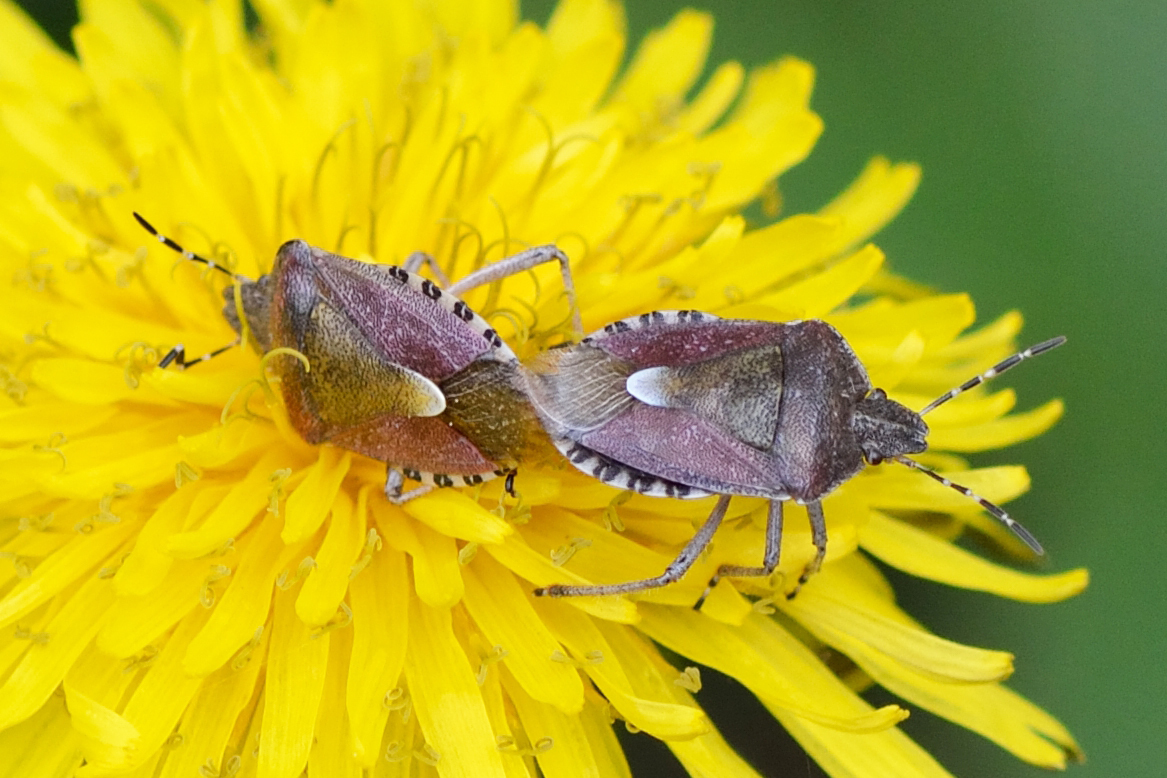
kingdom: Animalia
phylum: Arthropoda
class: Insecta
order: Hemiptera
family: Pentatomidae
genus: Dolycoris
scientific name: Dolycoris baccarum
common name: Sloe bug
